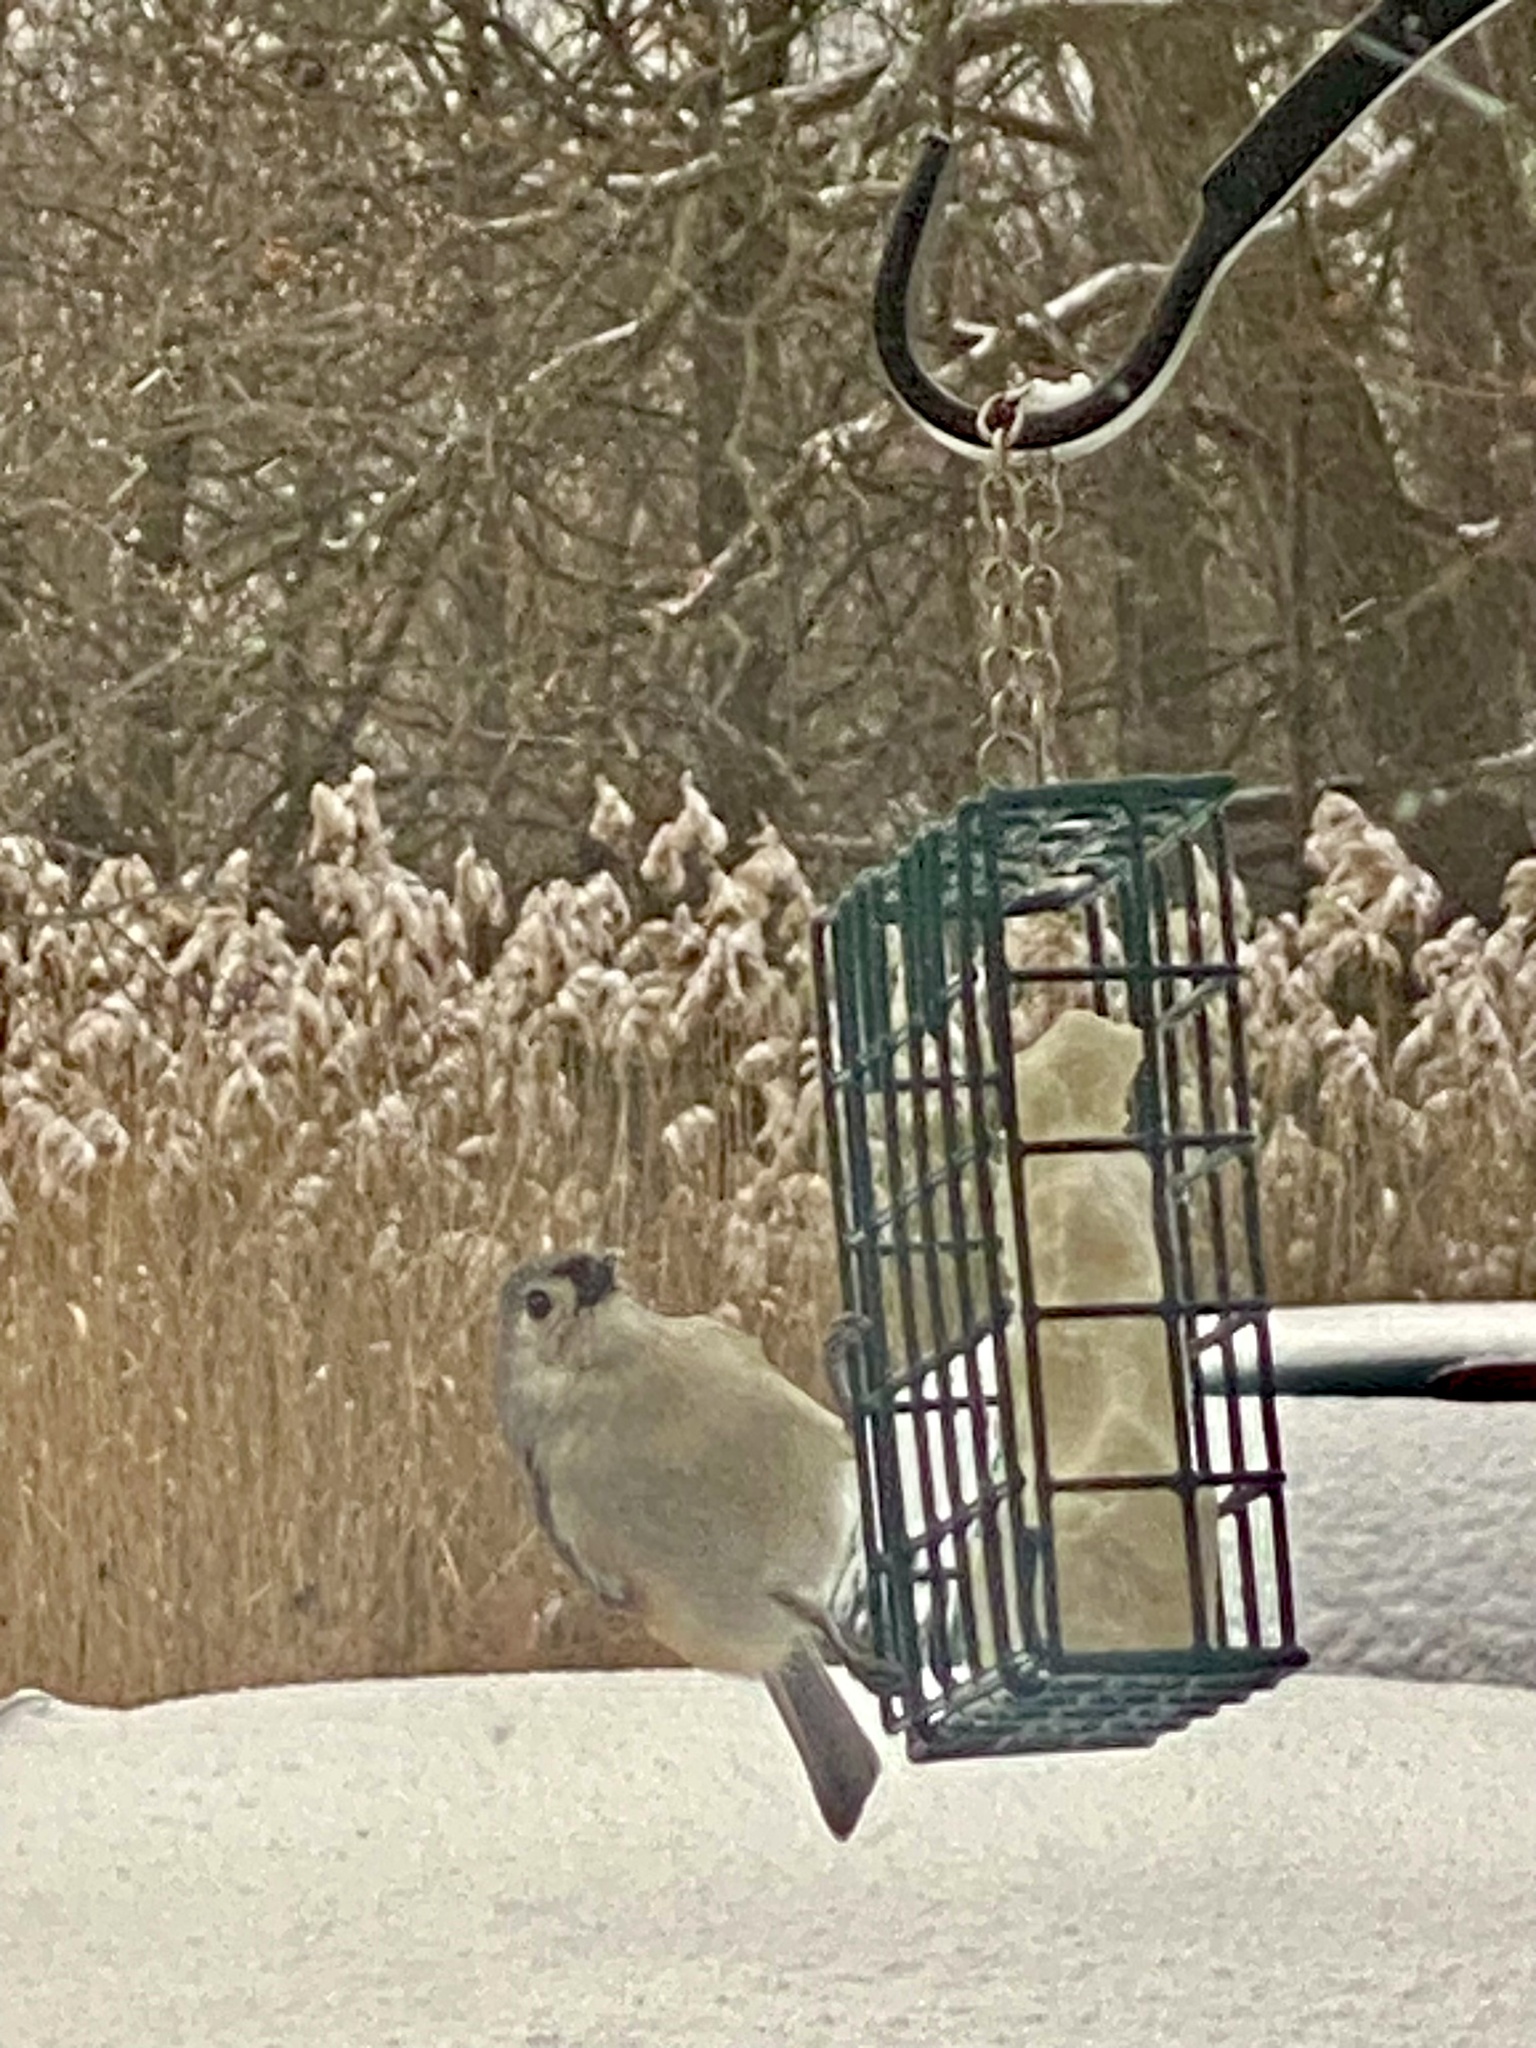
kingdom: Animalia
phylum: Chordata
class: Aves
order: Passeriformes
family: Paridae
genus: Baeolophus
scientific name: Baeolophus bicolor
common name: Tufted titmouse
